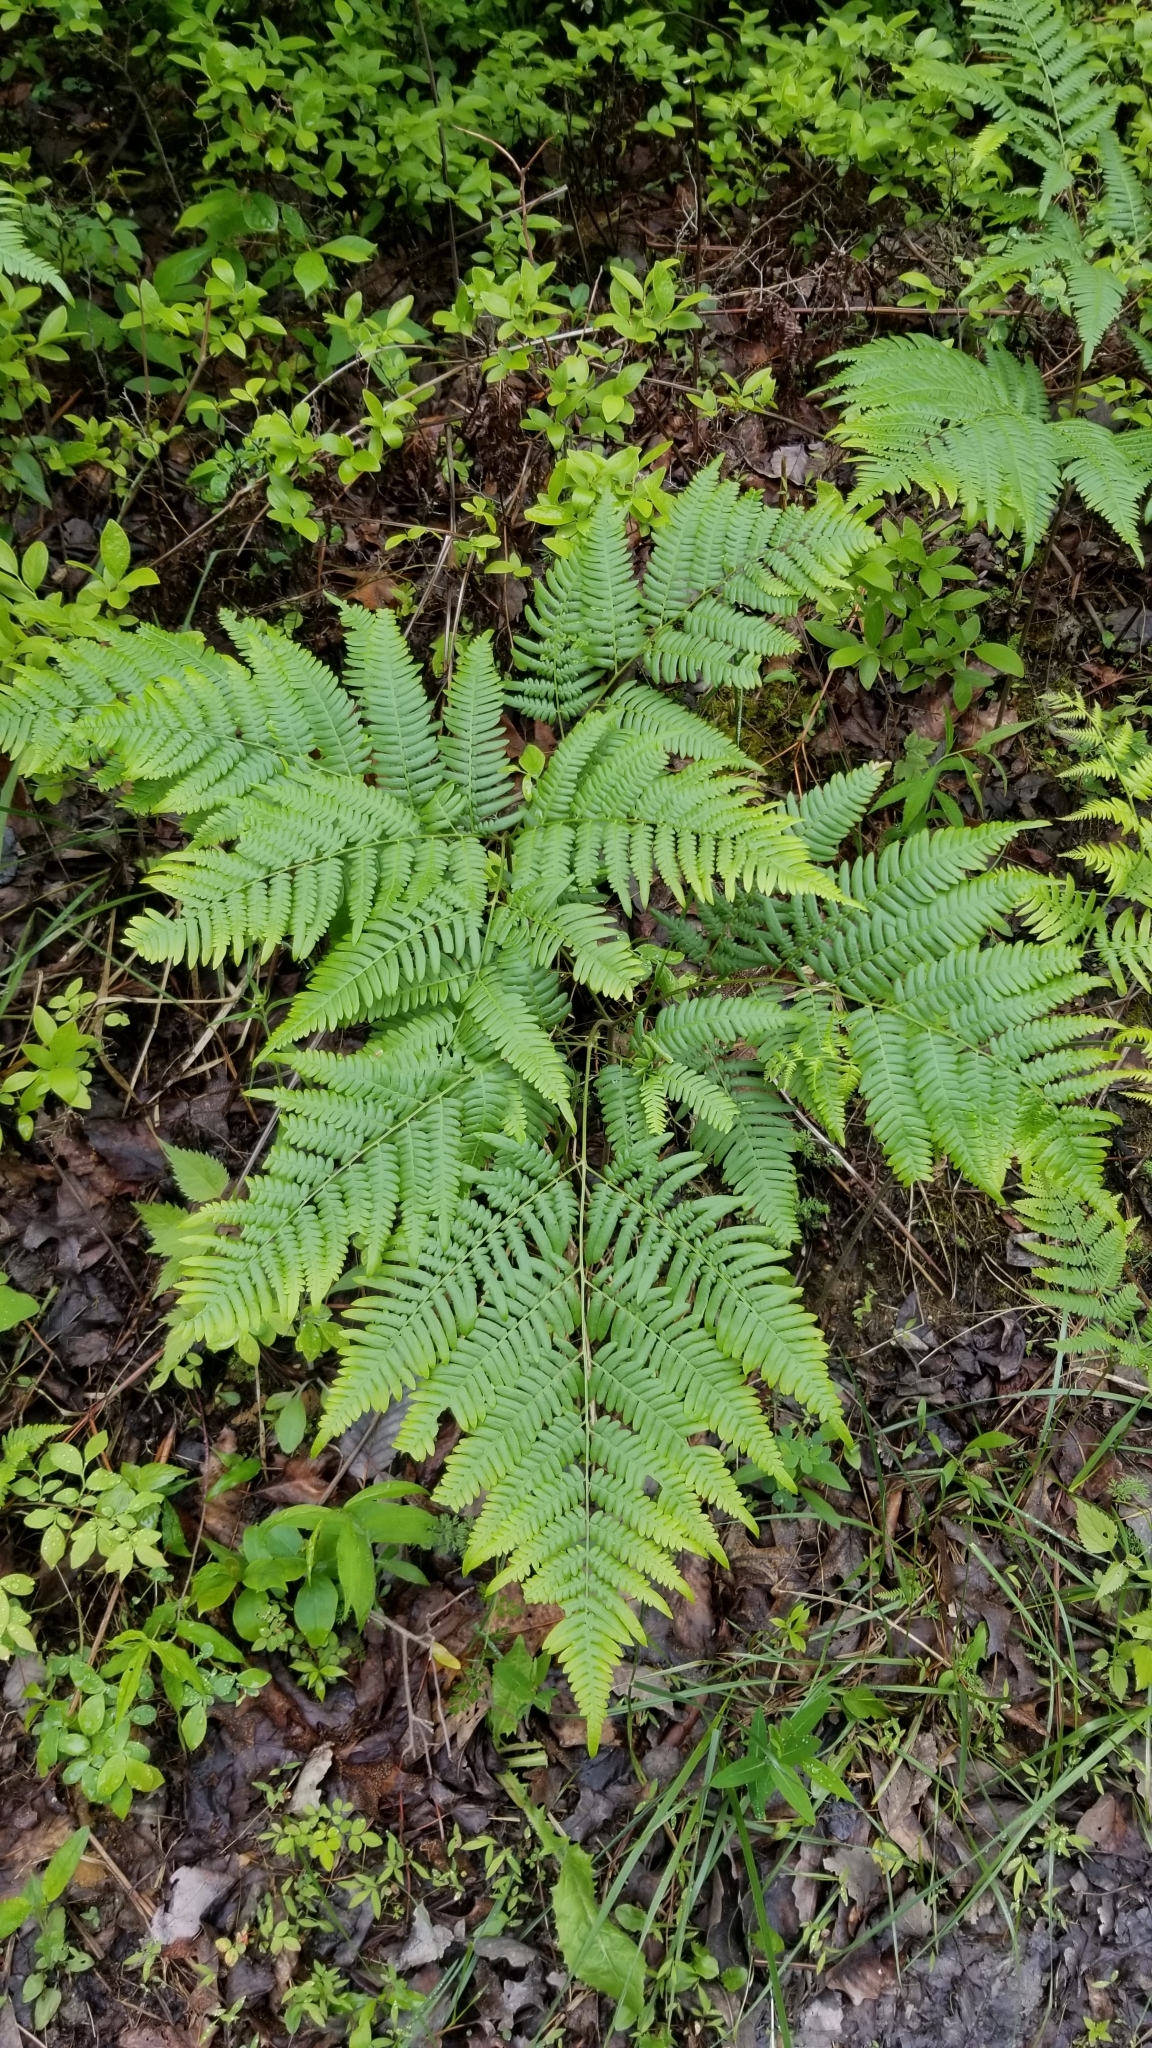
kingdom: Plantae
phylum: Tracheophyta
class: Polypodiopsida
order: Polypodiales
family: Dennstaedtiaceae
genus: Pteridium
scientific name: Pteridium aquilinum
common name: Bracken
